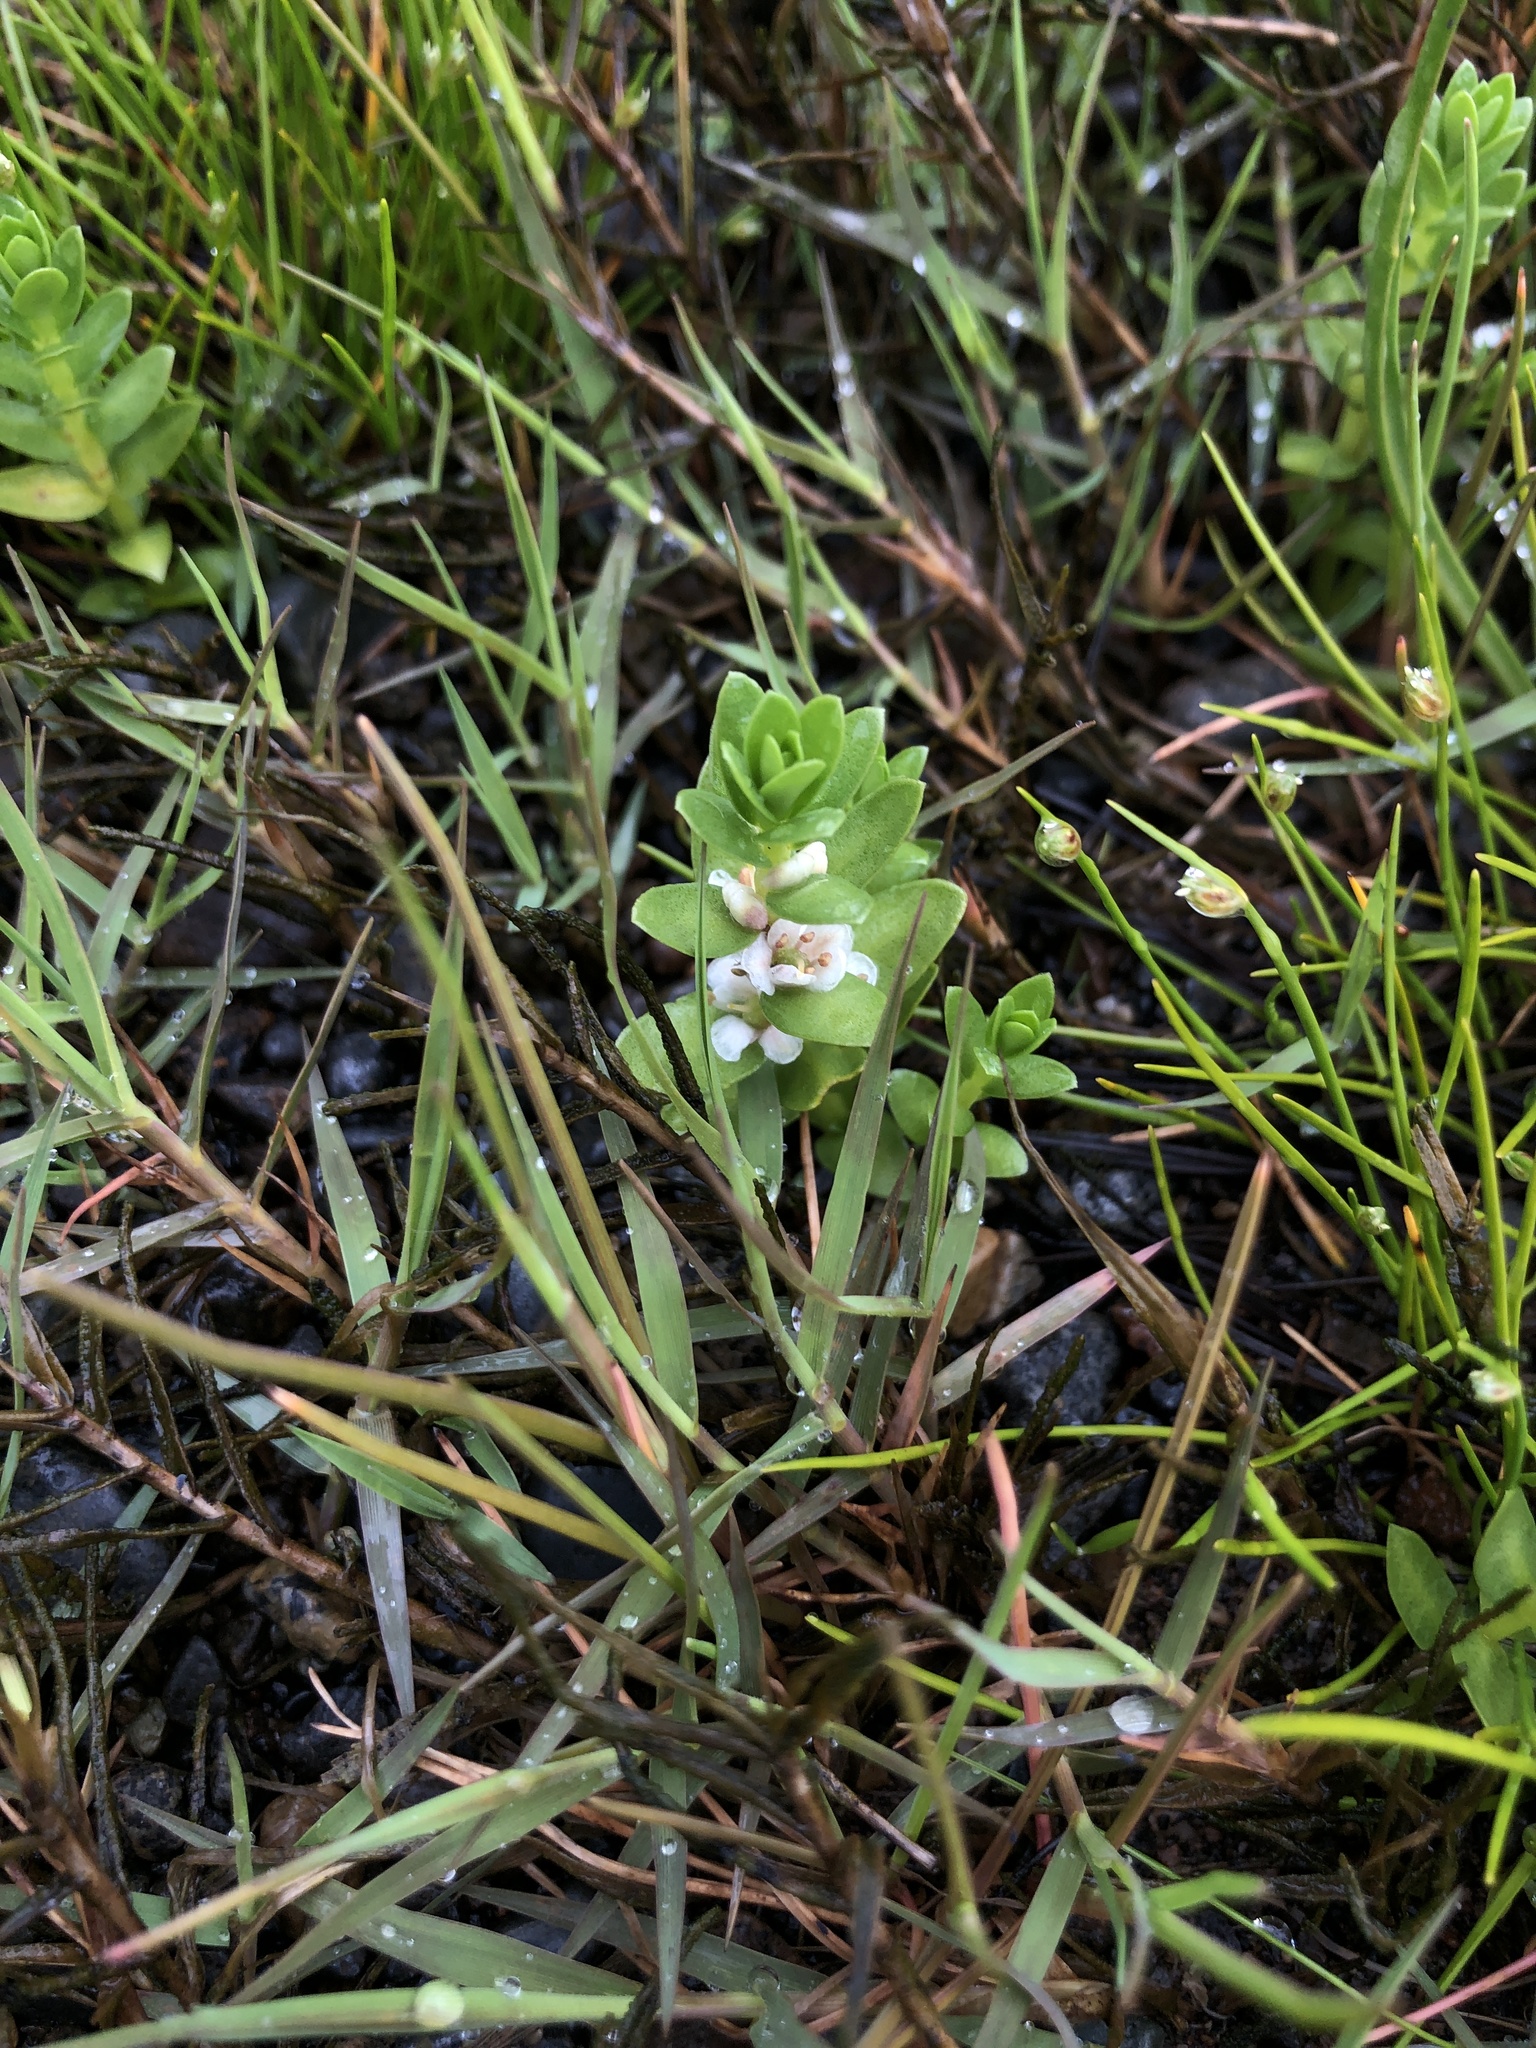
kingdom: Plantae
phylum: Tracheophyta
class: Magnoliopsida
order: Ericales
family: Primulaceae
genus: Lysimachia
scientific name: Lysimachia maritima
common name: Sea milkwort
